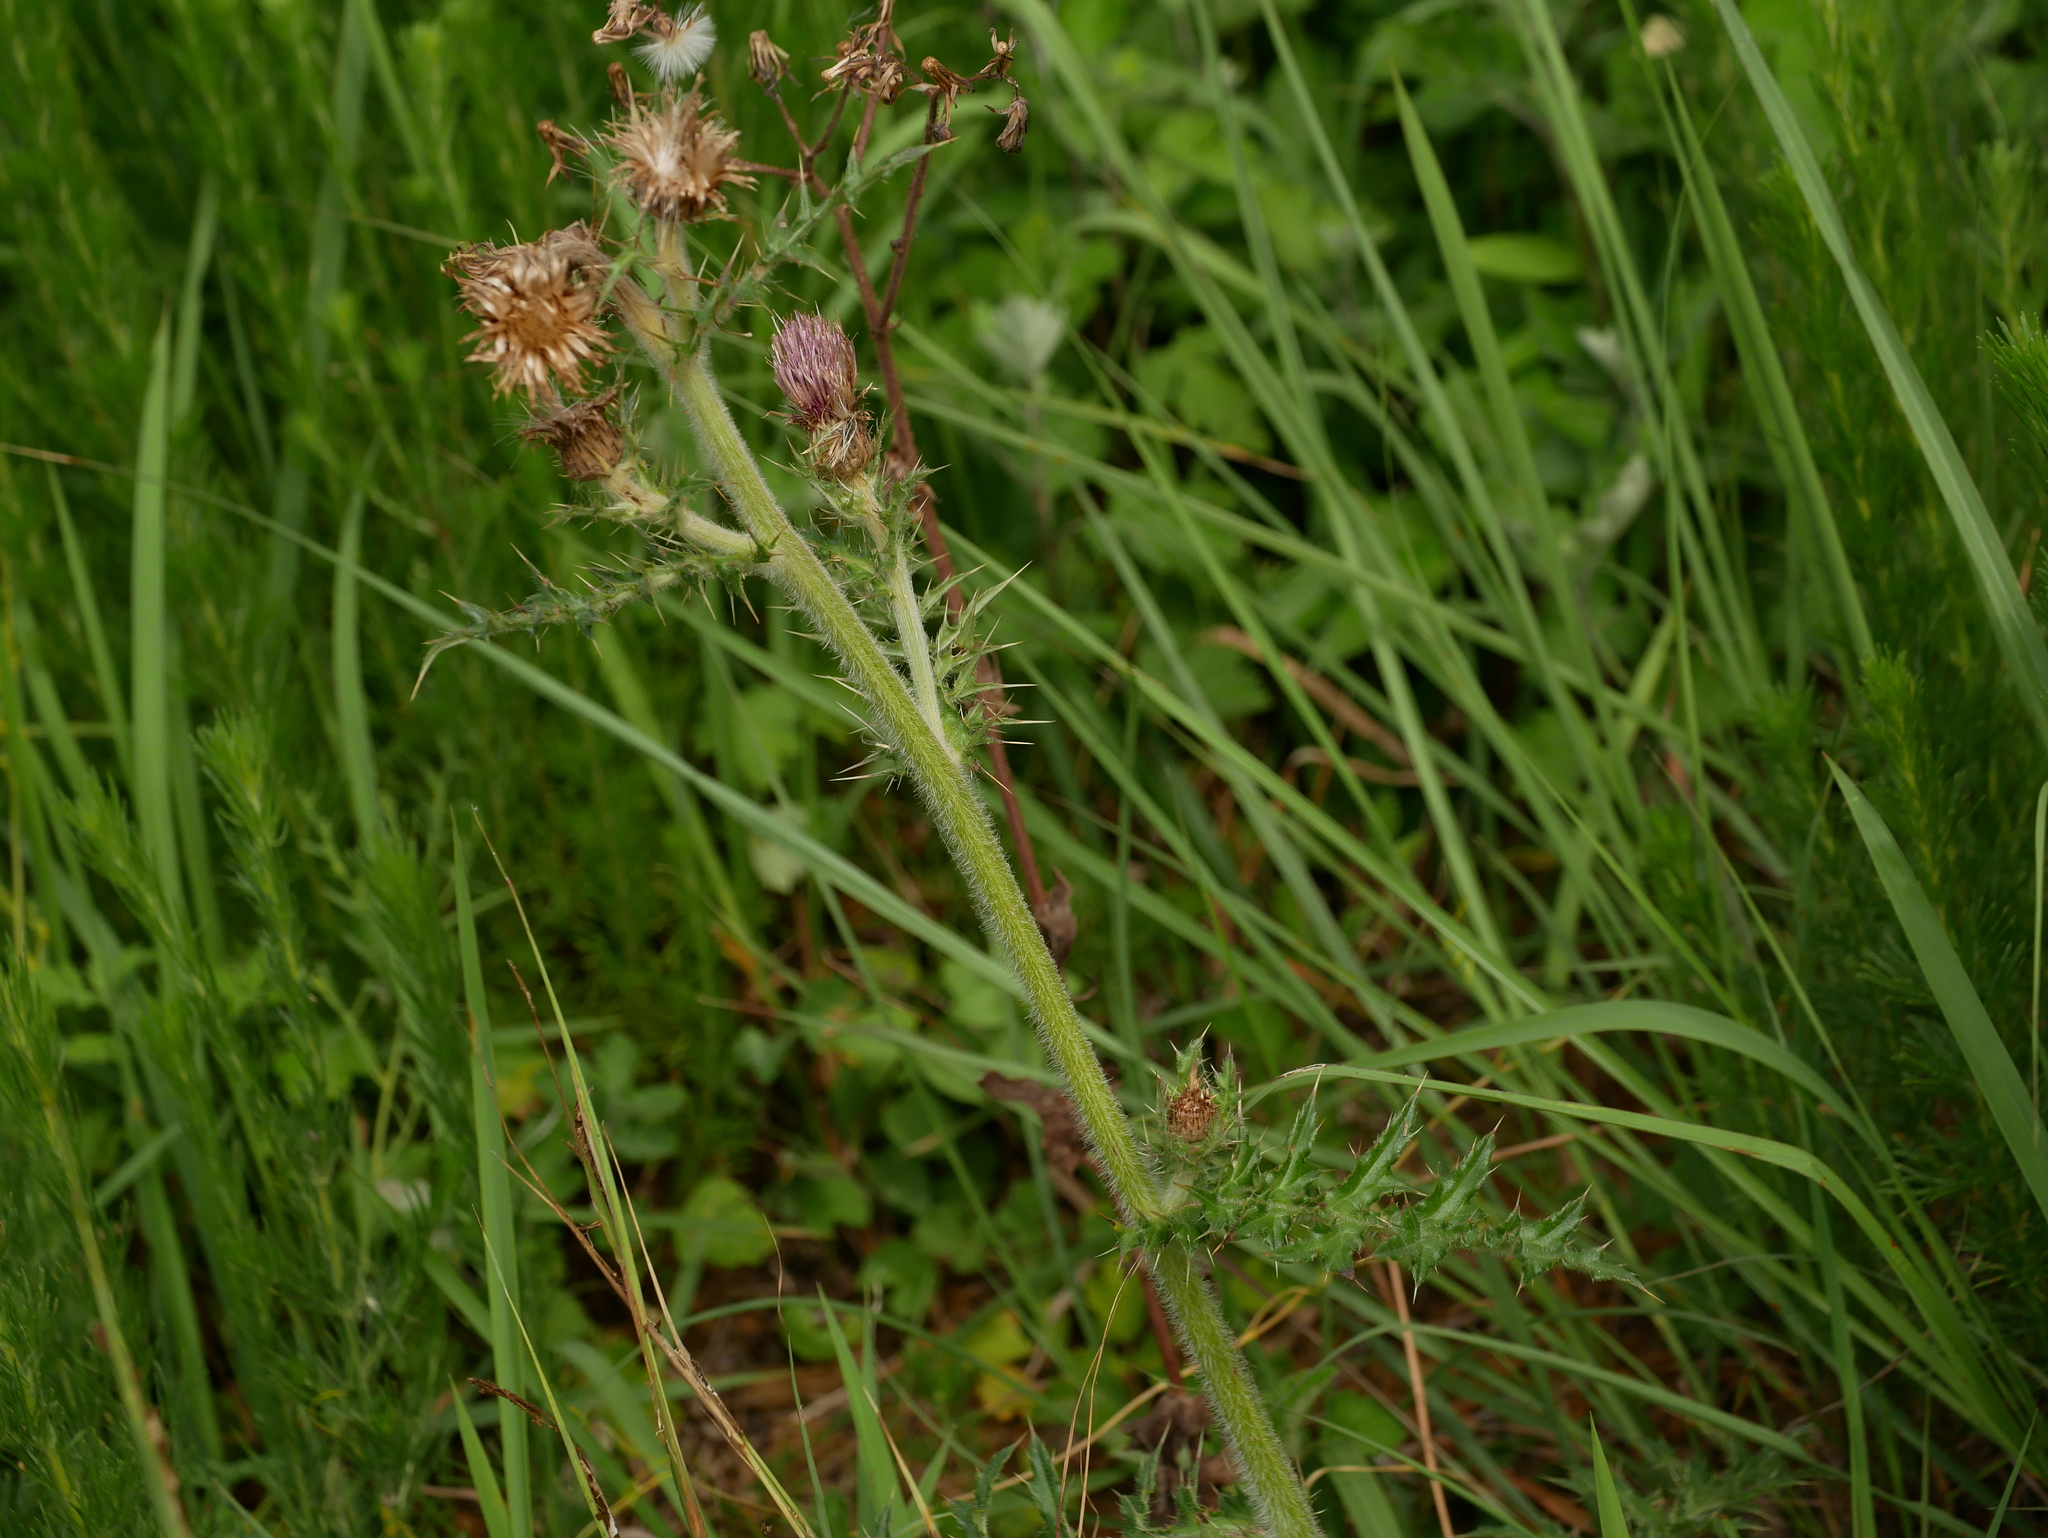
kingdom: Plantae
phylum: Tracheophyta
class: Magnoliopsida
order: Asterales
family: Asteraceae
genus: Cirsium
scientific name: Cirsium japonicum
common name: Japanese thistle
